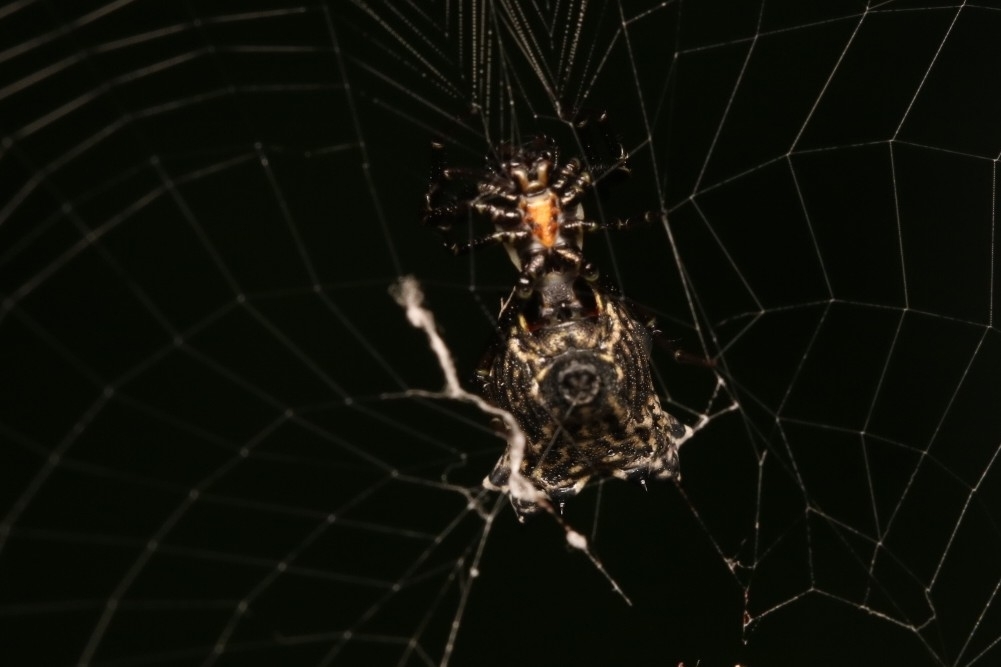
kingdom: Animalia
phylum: Arthropoda
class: Arachnida
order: Araneae
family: Araneidae
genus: Micrathena
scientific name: Micrathena gracilis
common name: Orb weavers
